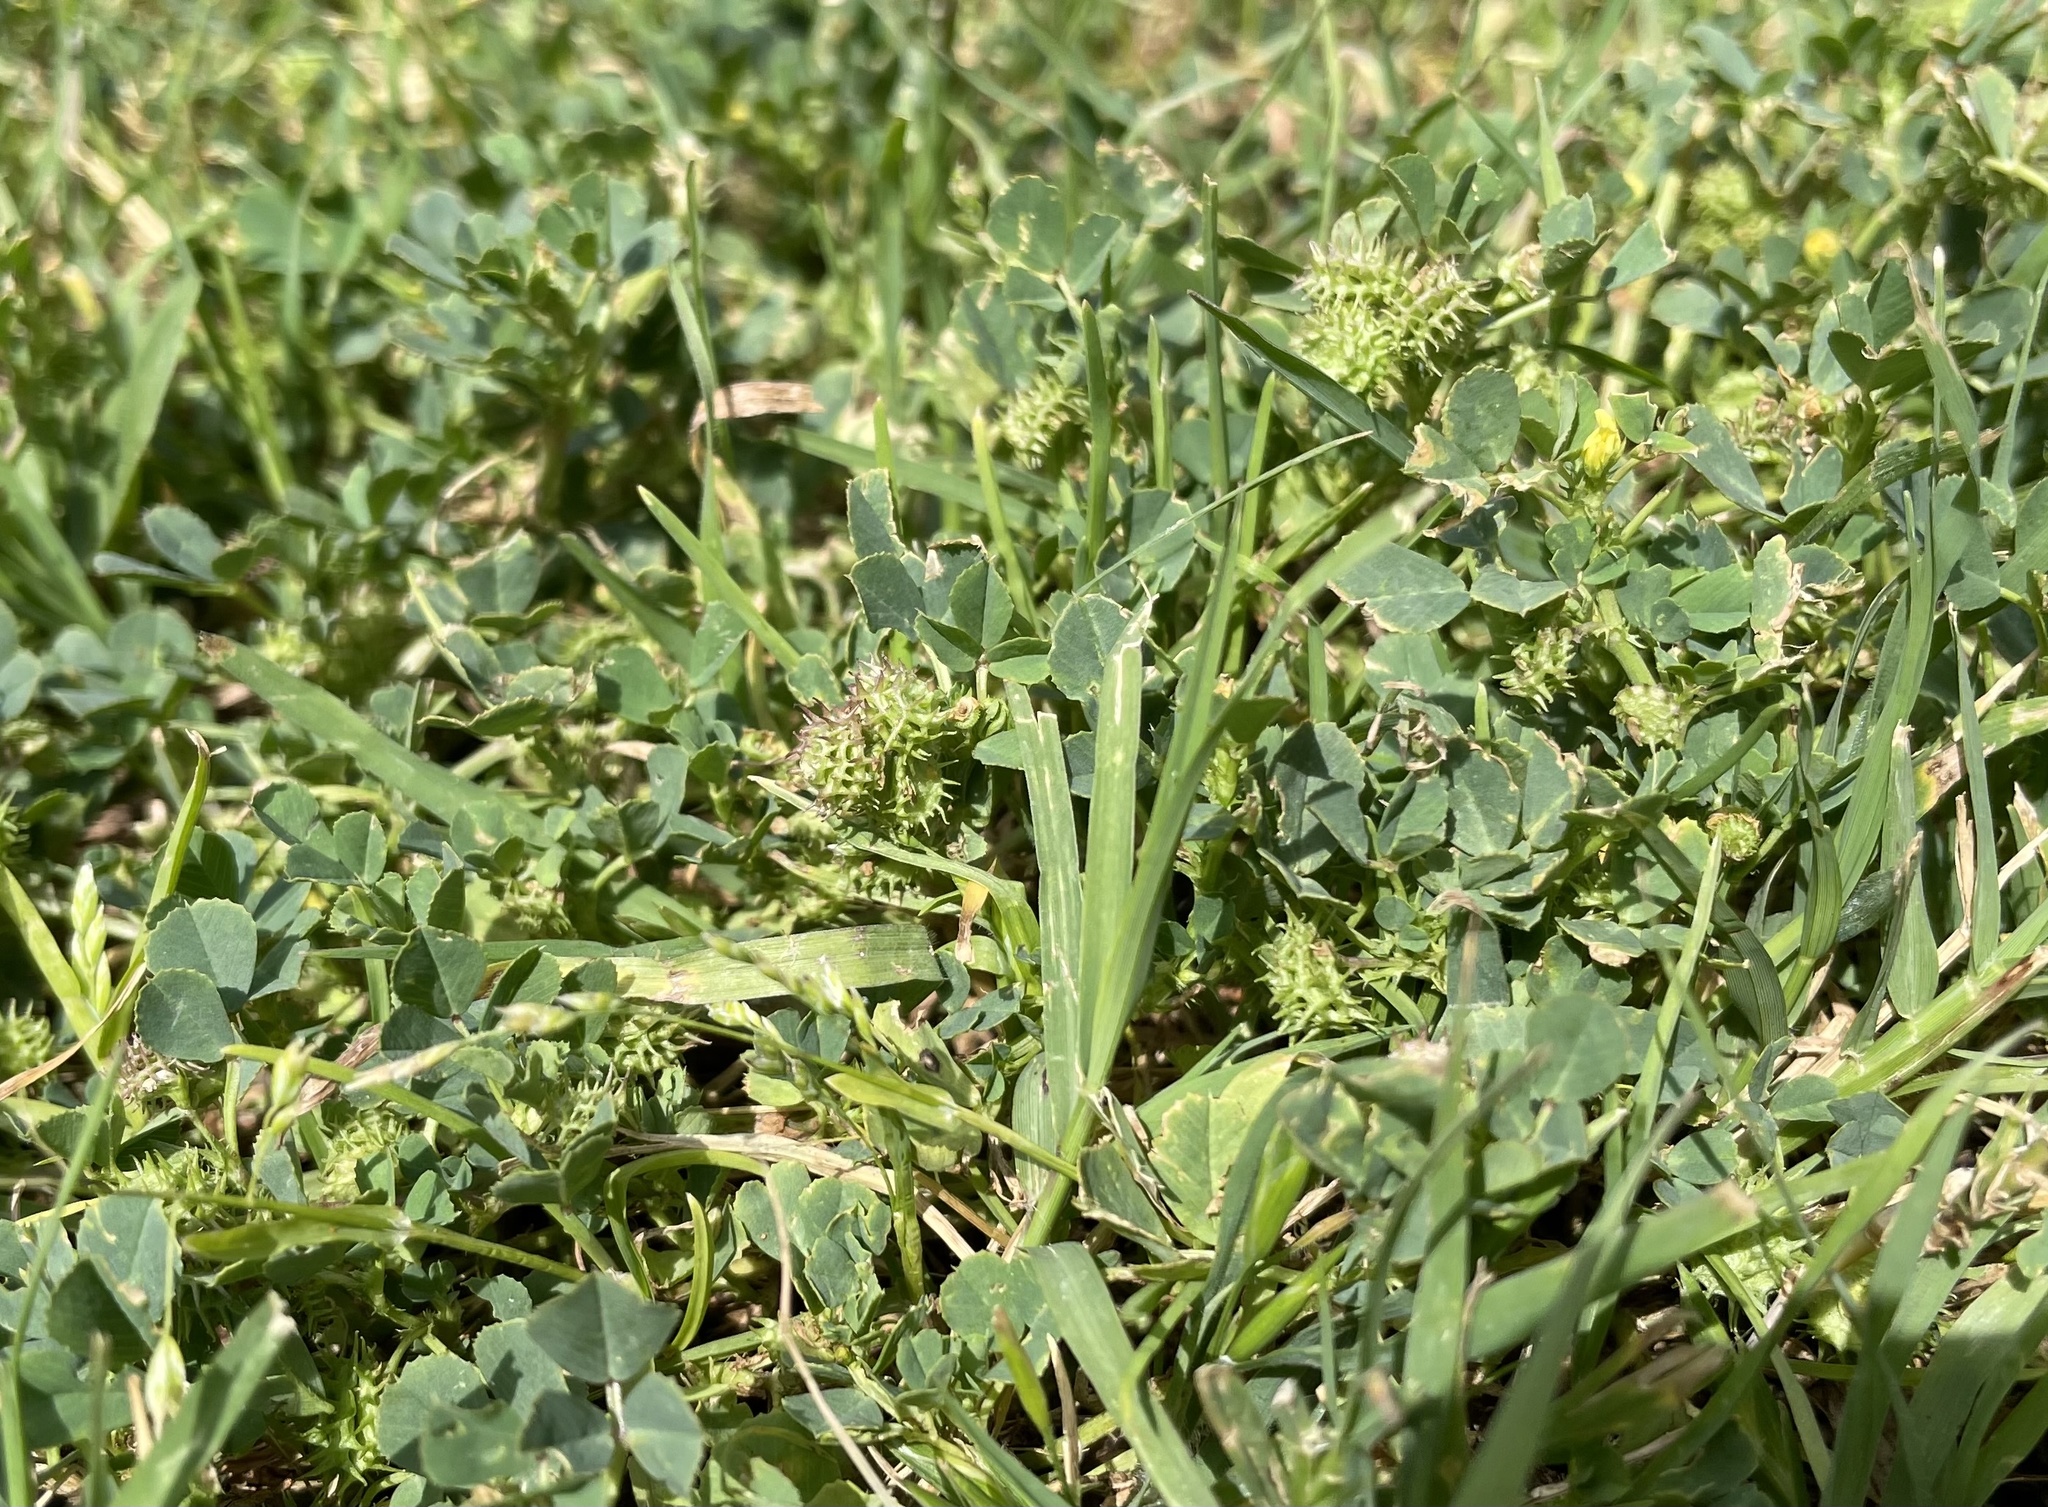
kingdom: Plantae
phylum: Tracheophyta
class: Magnoliopsida
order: Fabales
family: Fabaceae
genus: Medicago
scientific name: Medicago polymorpha
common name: Burclover
